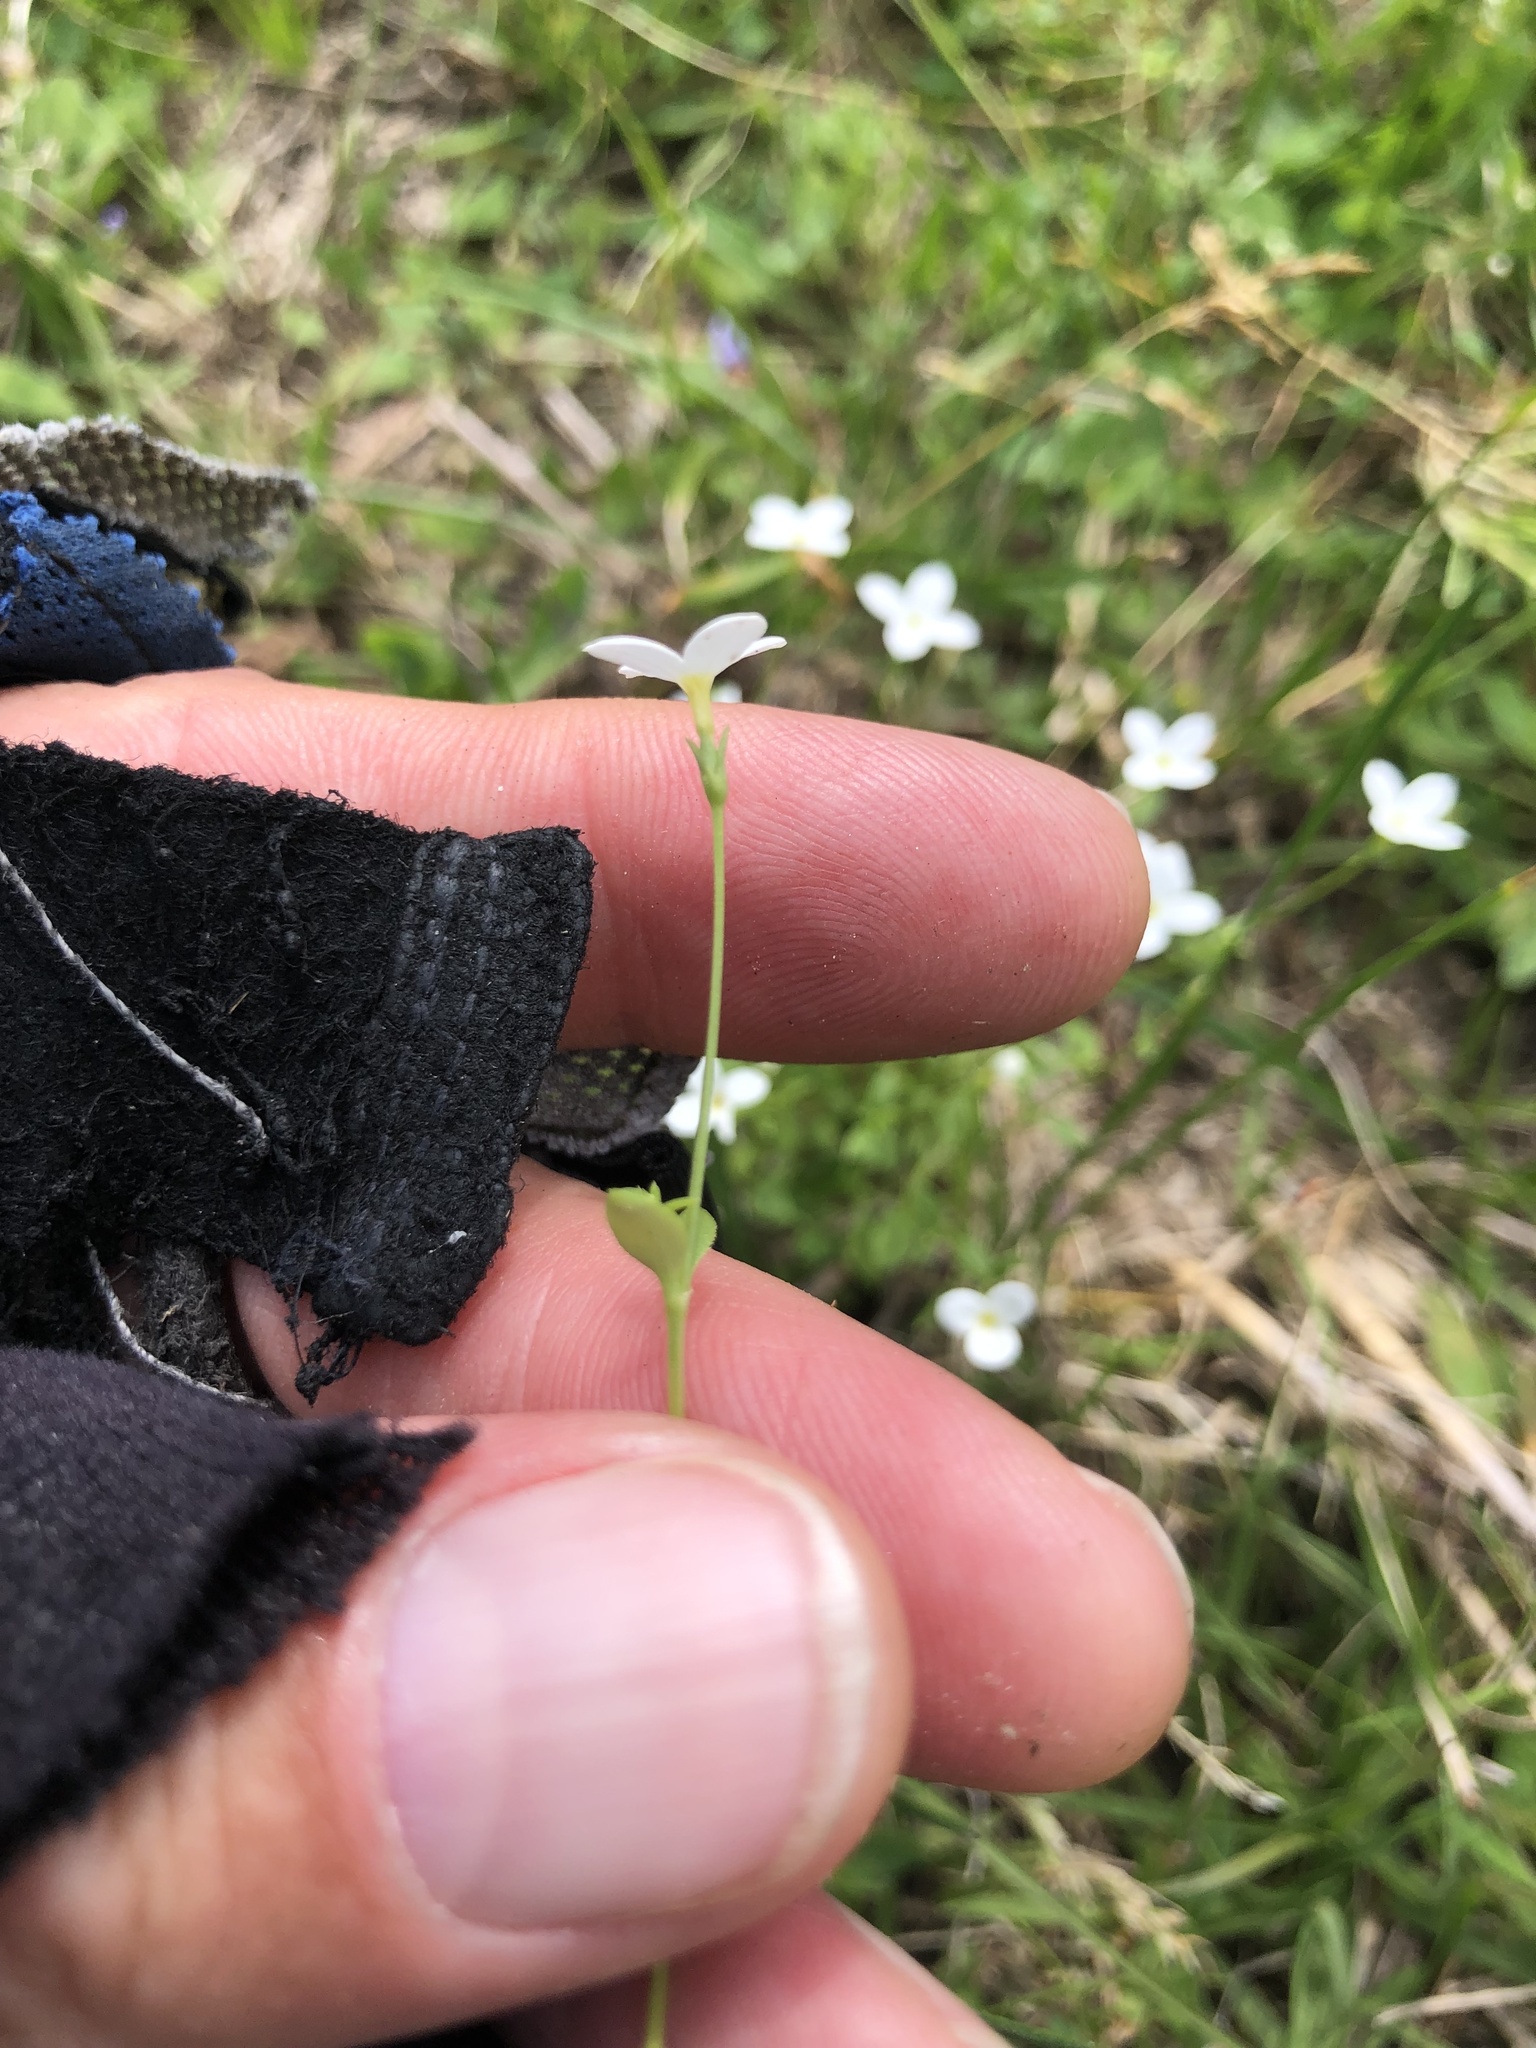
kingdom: Plantae
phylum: Tracheophyta
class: Magnoliopsida
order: Gentianales
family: Rubiaceae
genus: Houstonia
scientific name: Houstonia pusilla
